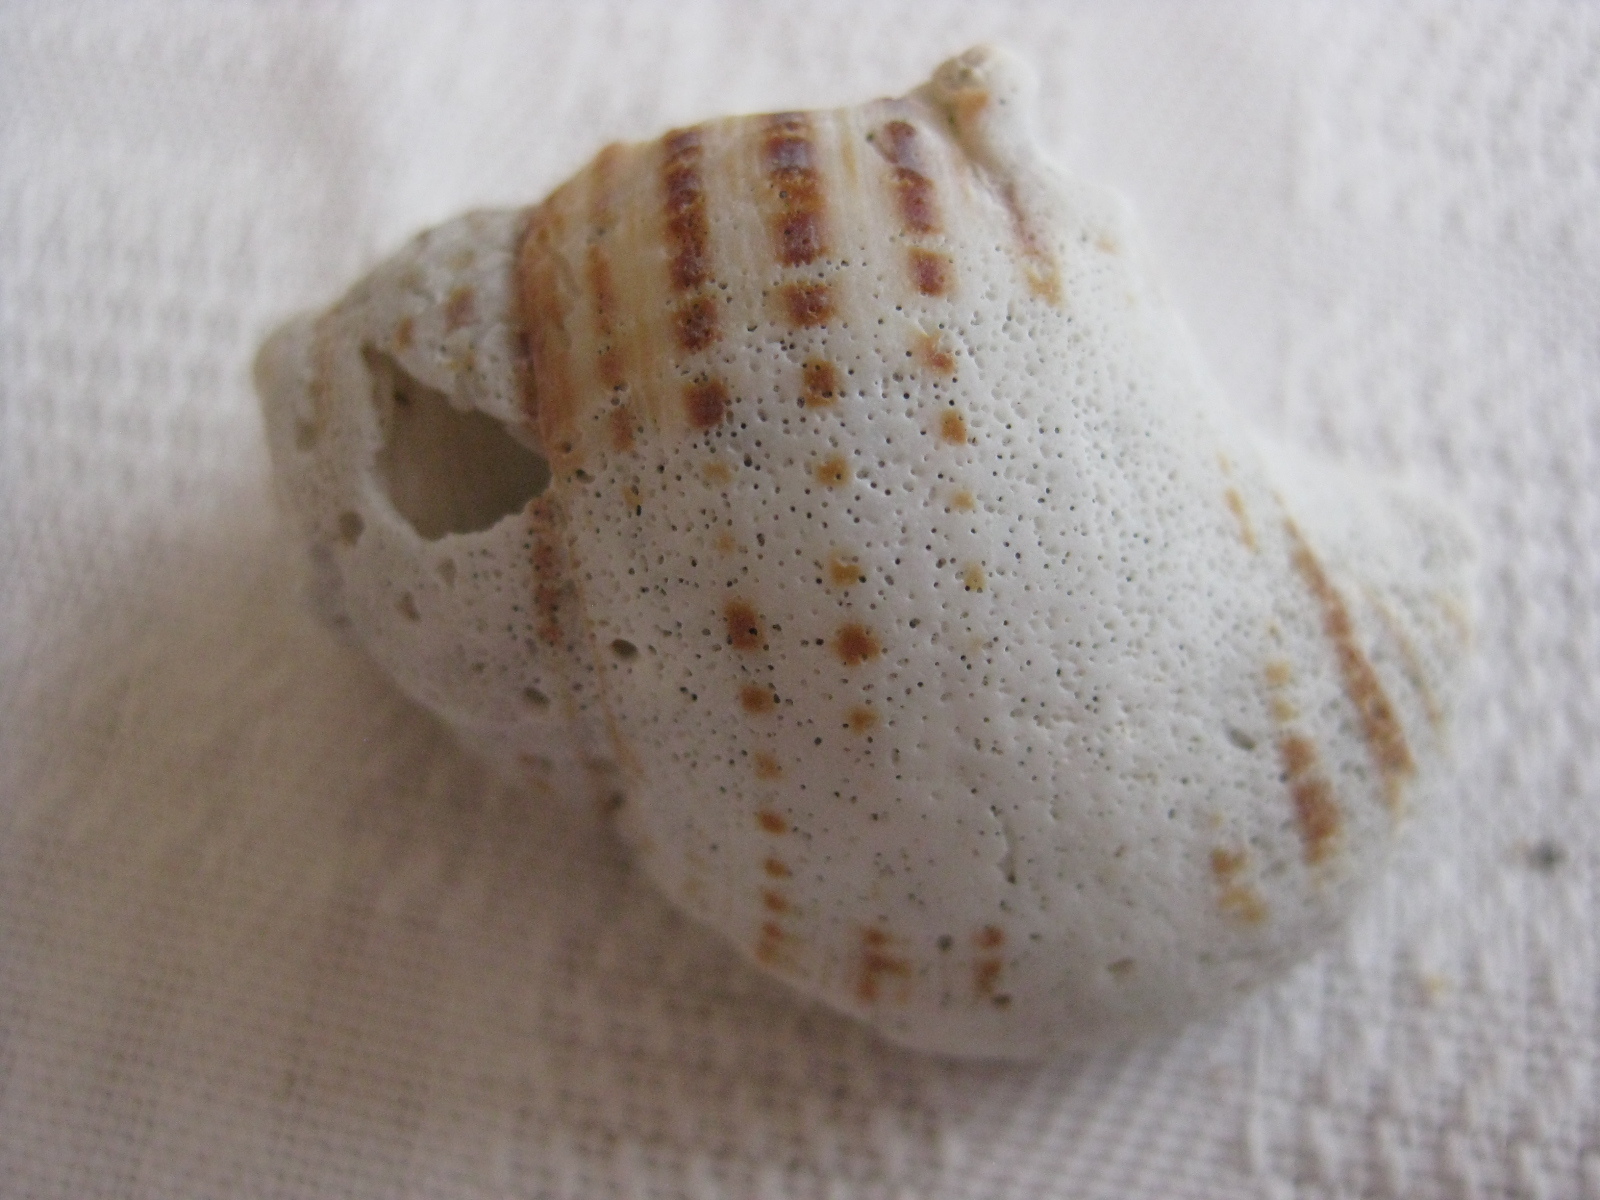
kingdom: Animalia
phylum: Mollusca
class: Gastropoda
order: Littorinimorpha
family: Cymatiidae
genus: Argobuccinum
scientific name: Argobuccinum pustulosum
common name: Pustular triton
